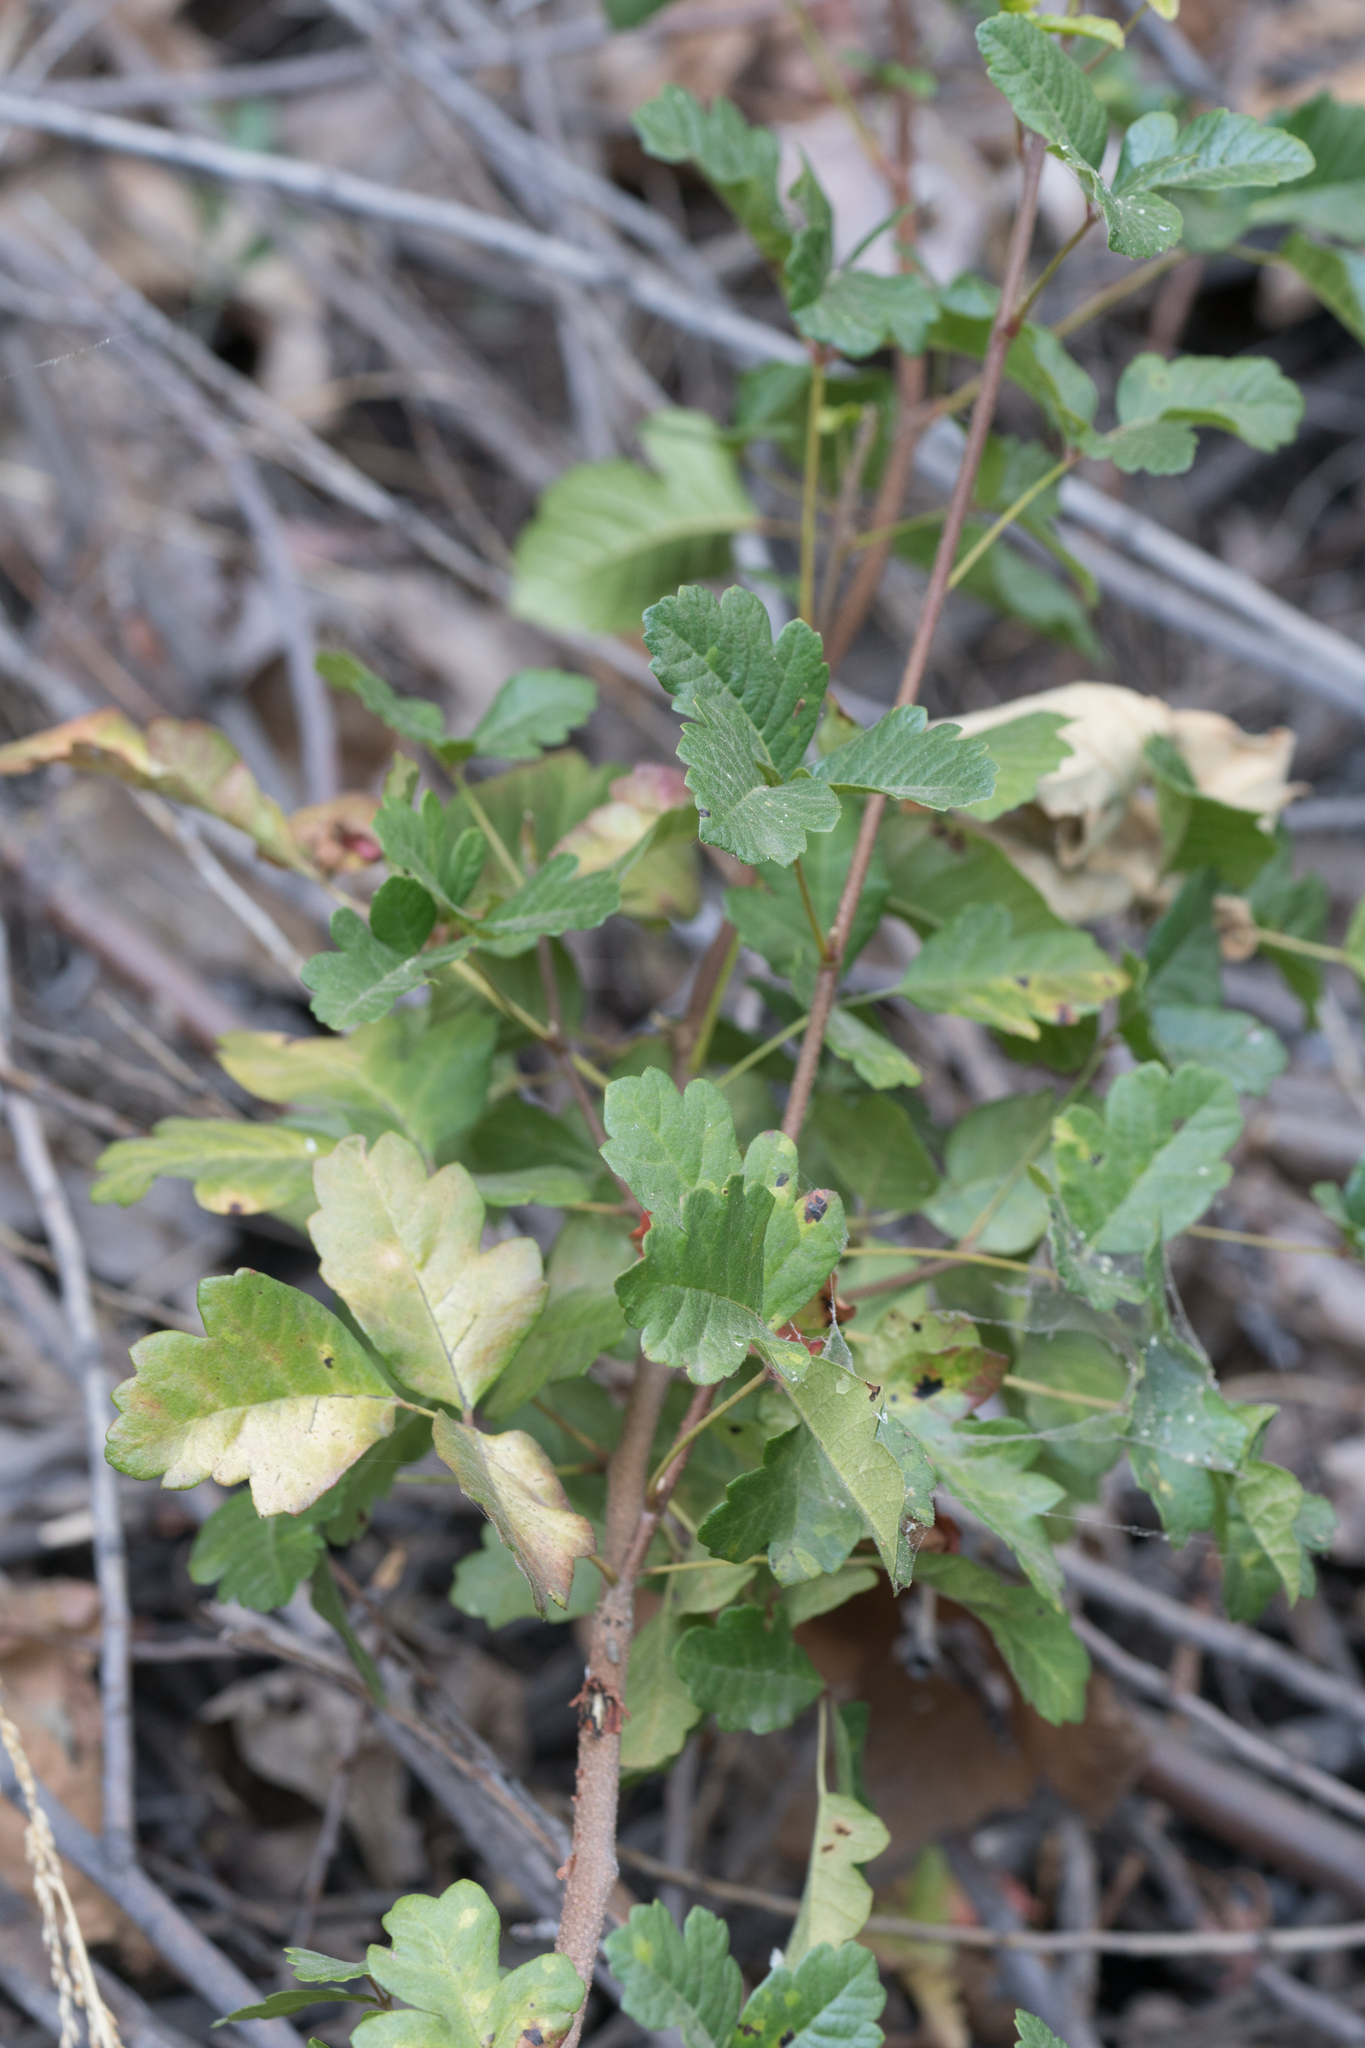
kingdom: Plantae
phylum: Tracheophyta
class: Magnoliopsida
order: Sapindales
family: Anacardiaceae
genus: Toxicodendron
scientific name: Toxicodendron diversilobum
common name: Pacific poison-oak
